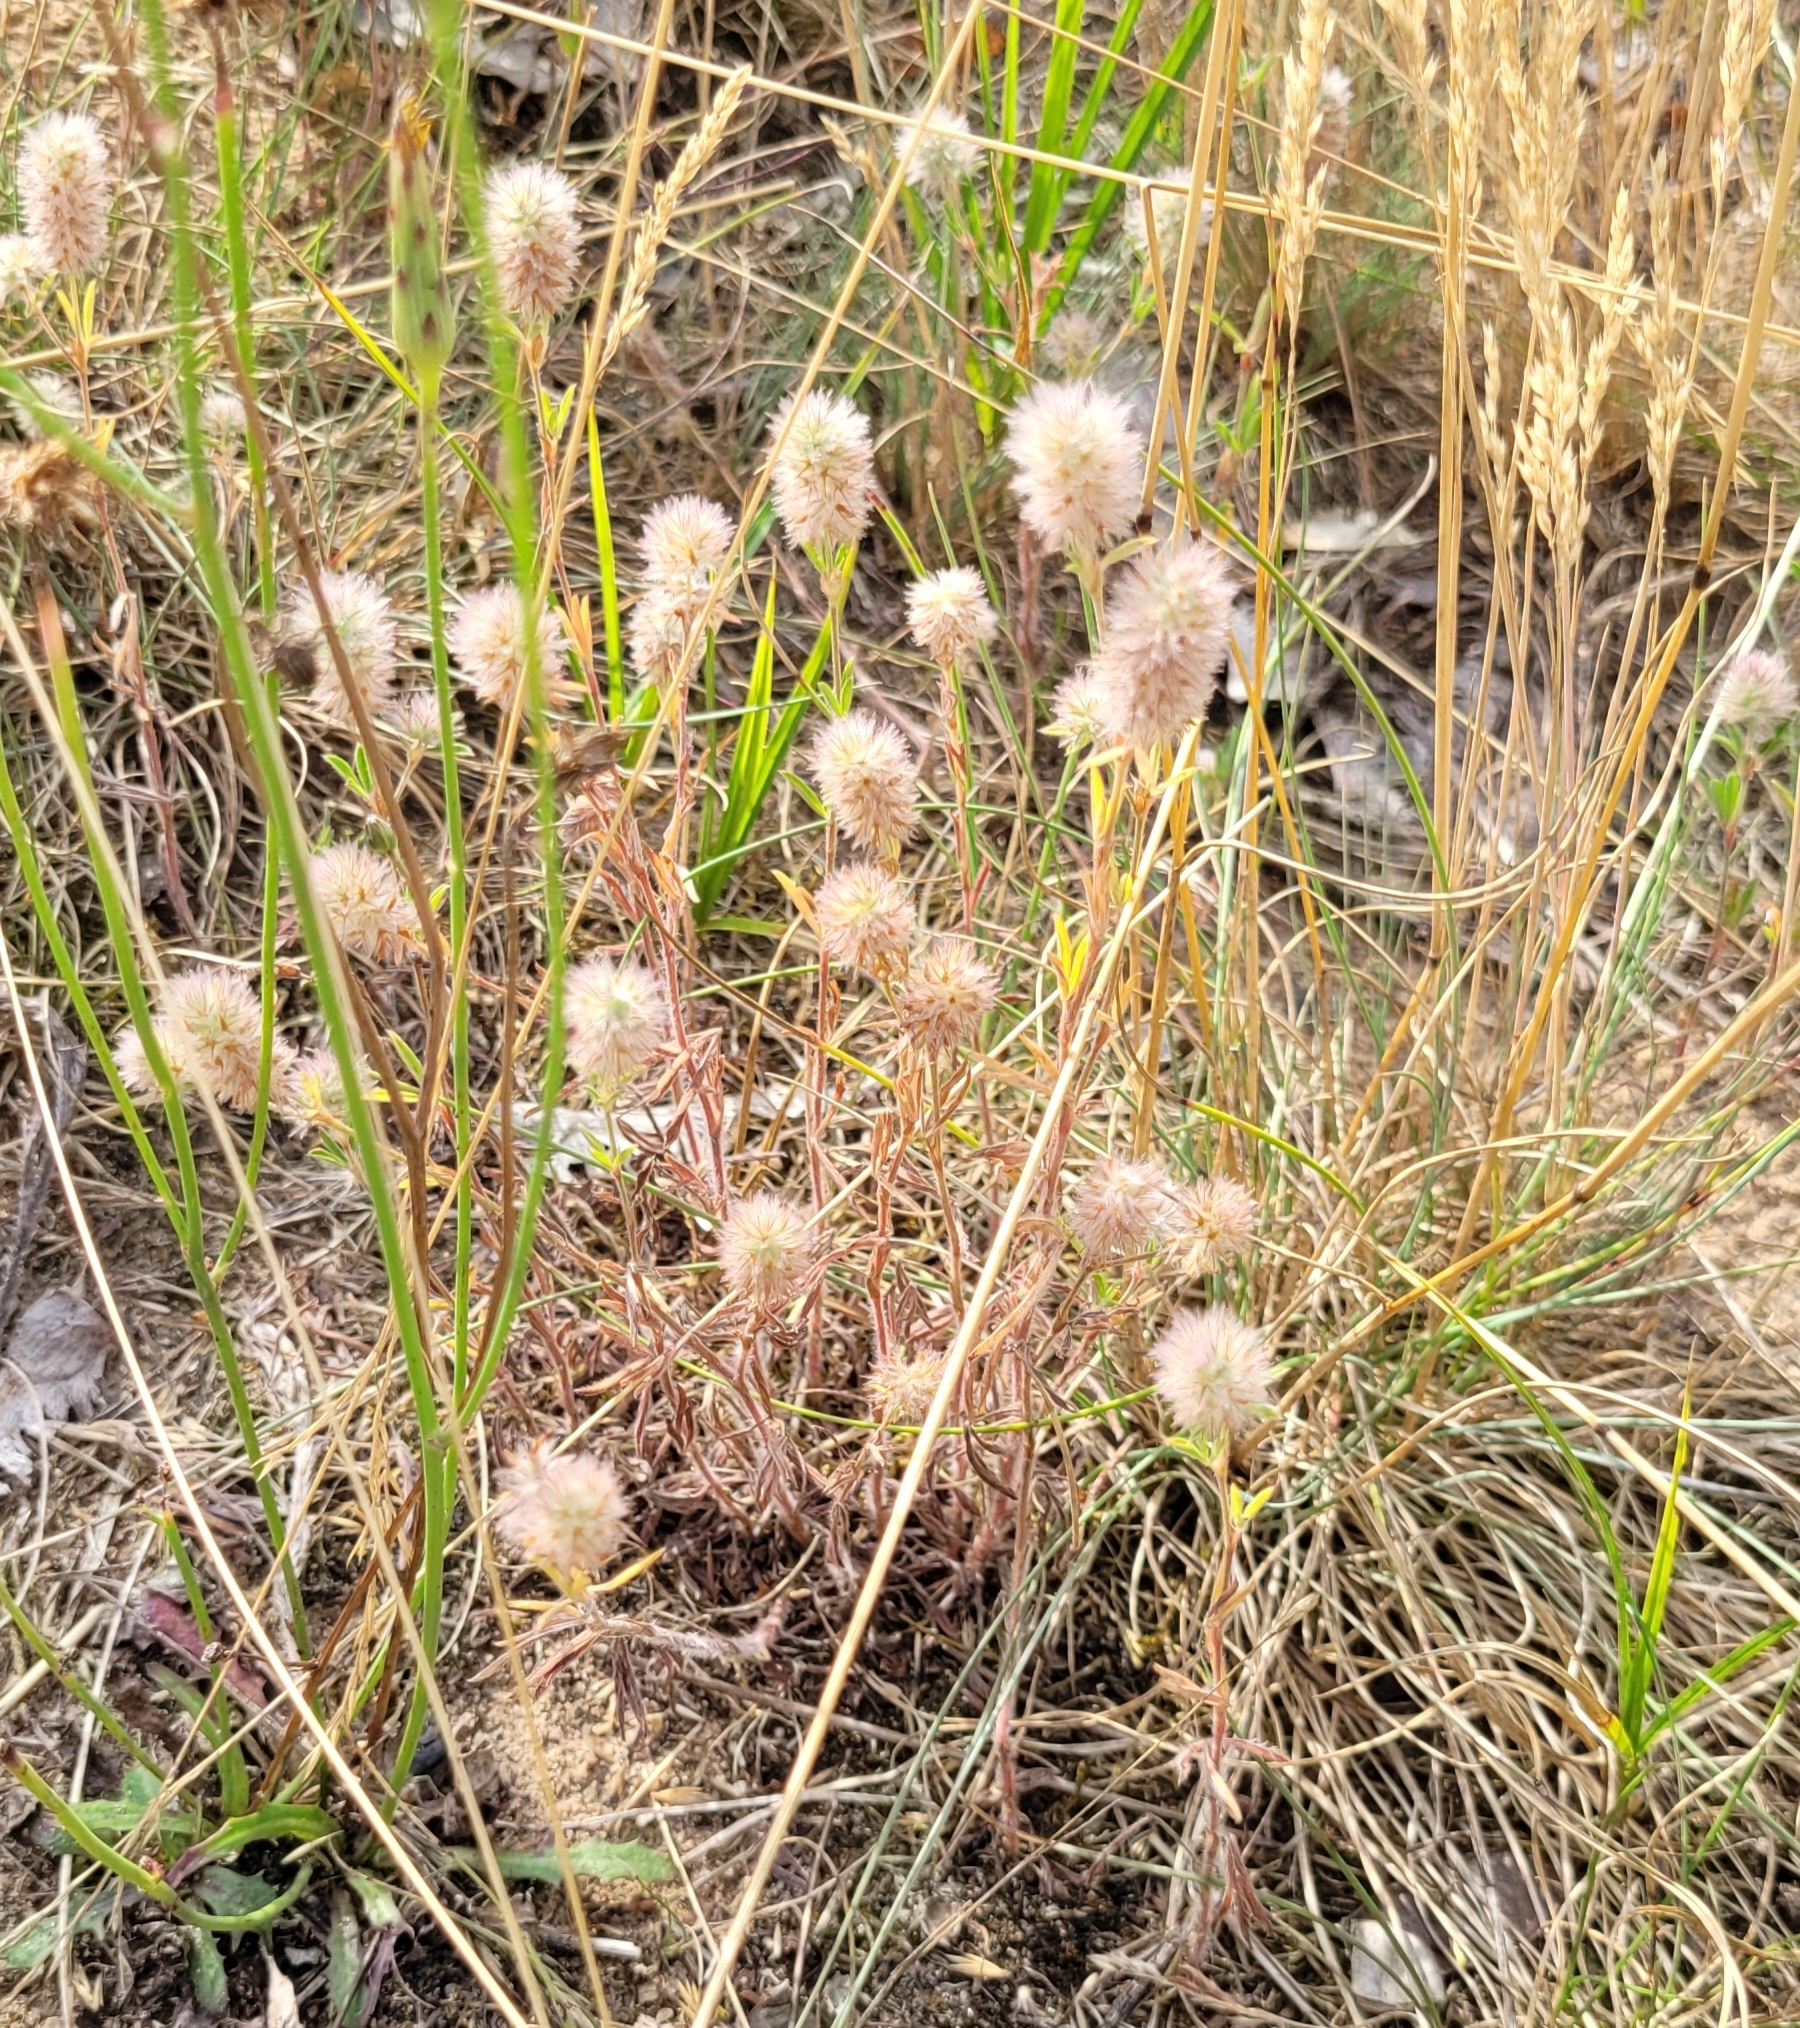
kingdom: Plantae
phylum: Tracheophyta
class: Magnoliopsida
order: Fabales
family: Fabaceae
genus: Trifolium
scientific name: Trifolium arvense
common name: Hare's-foot clover
